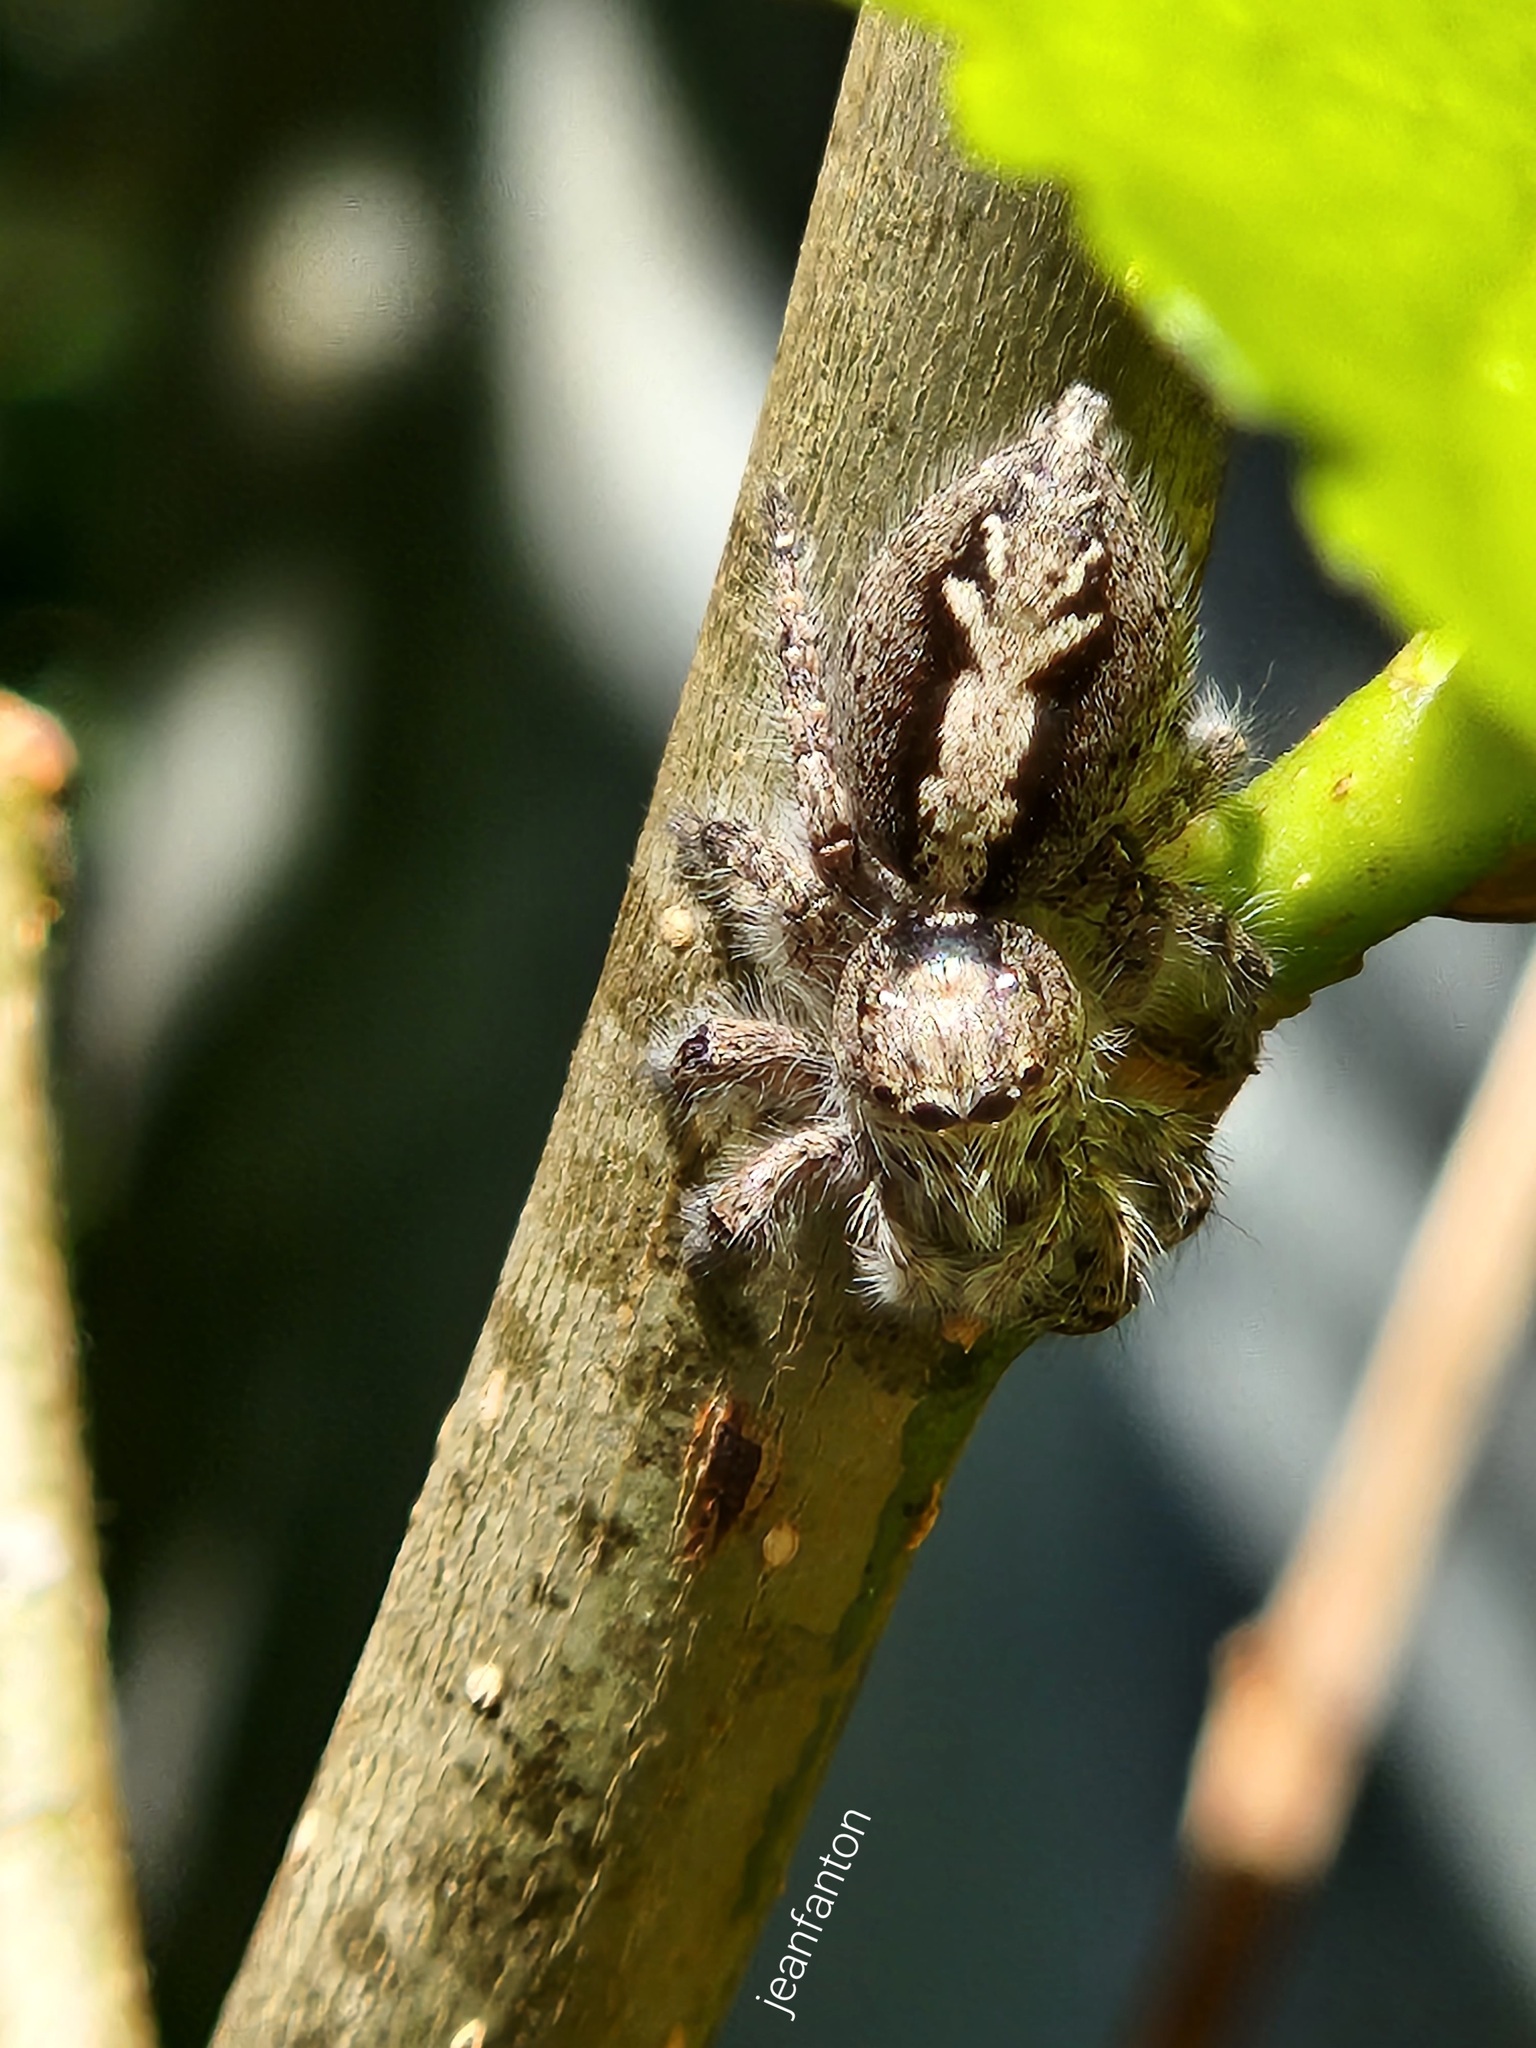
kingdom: Animalia
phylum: Arthropoda
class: Arachnida
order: Araneae
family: Salticidae
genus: Megafreya
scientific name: Megafreya sutrix
